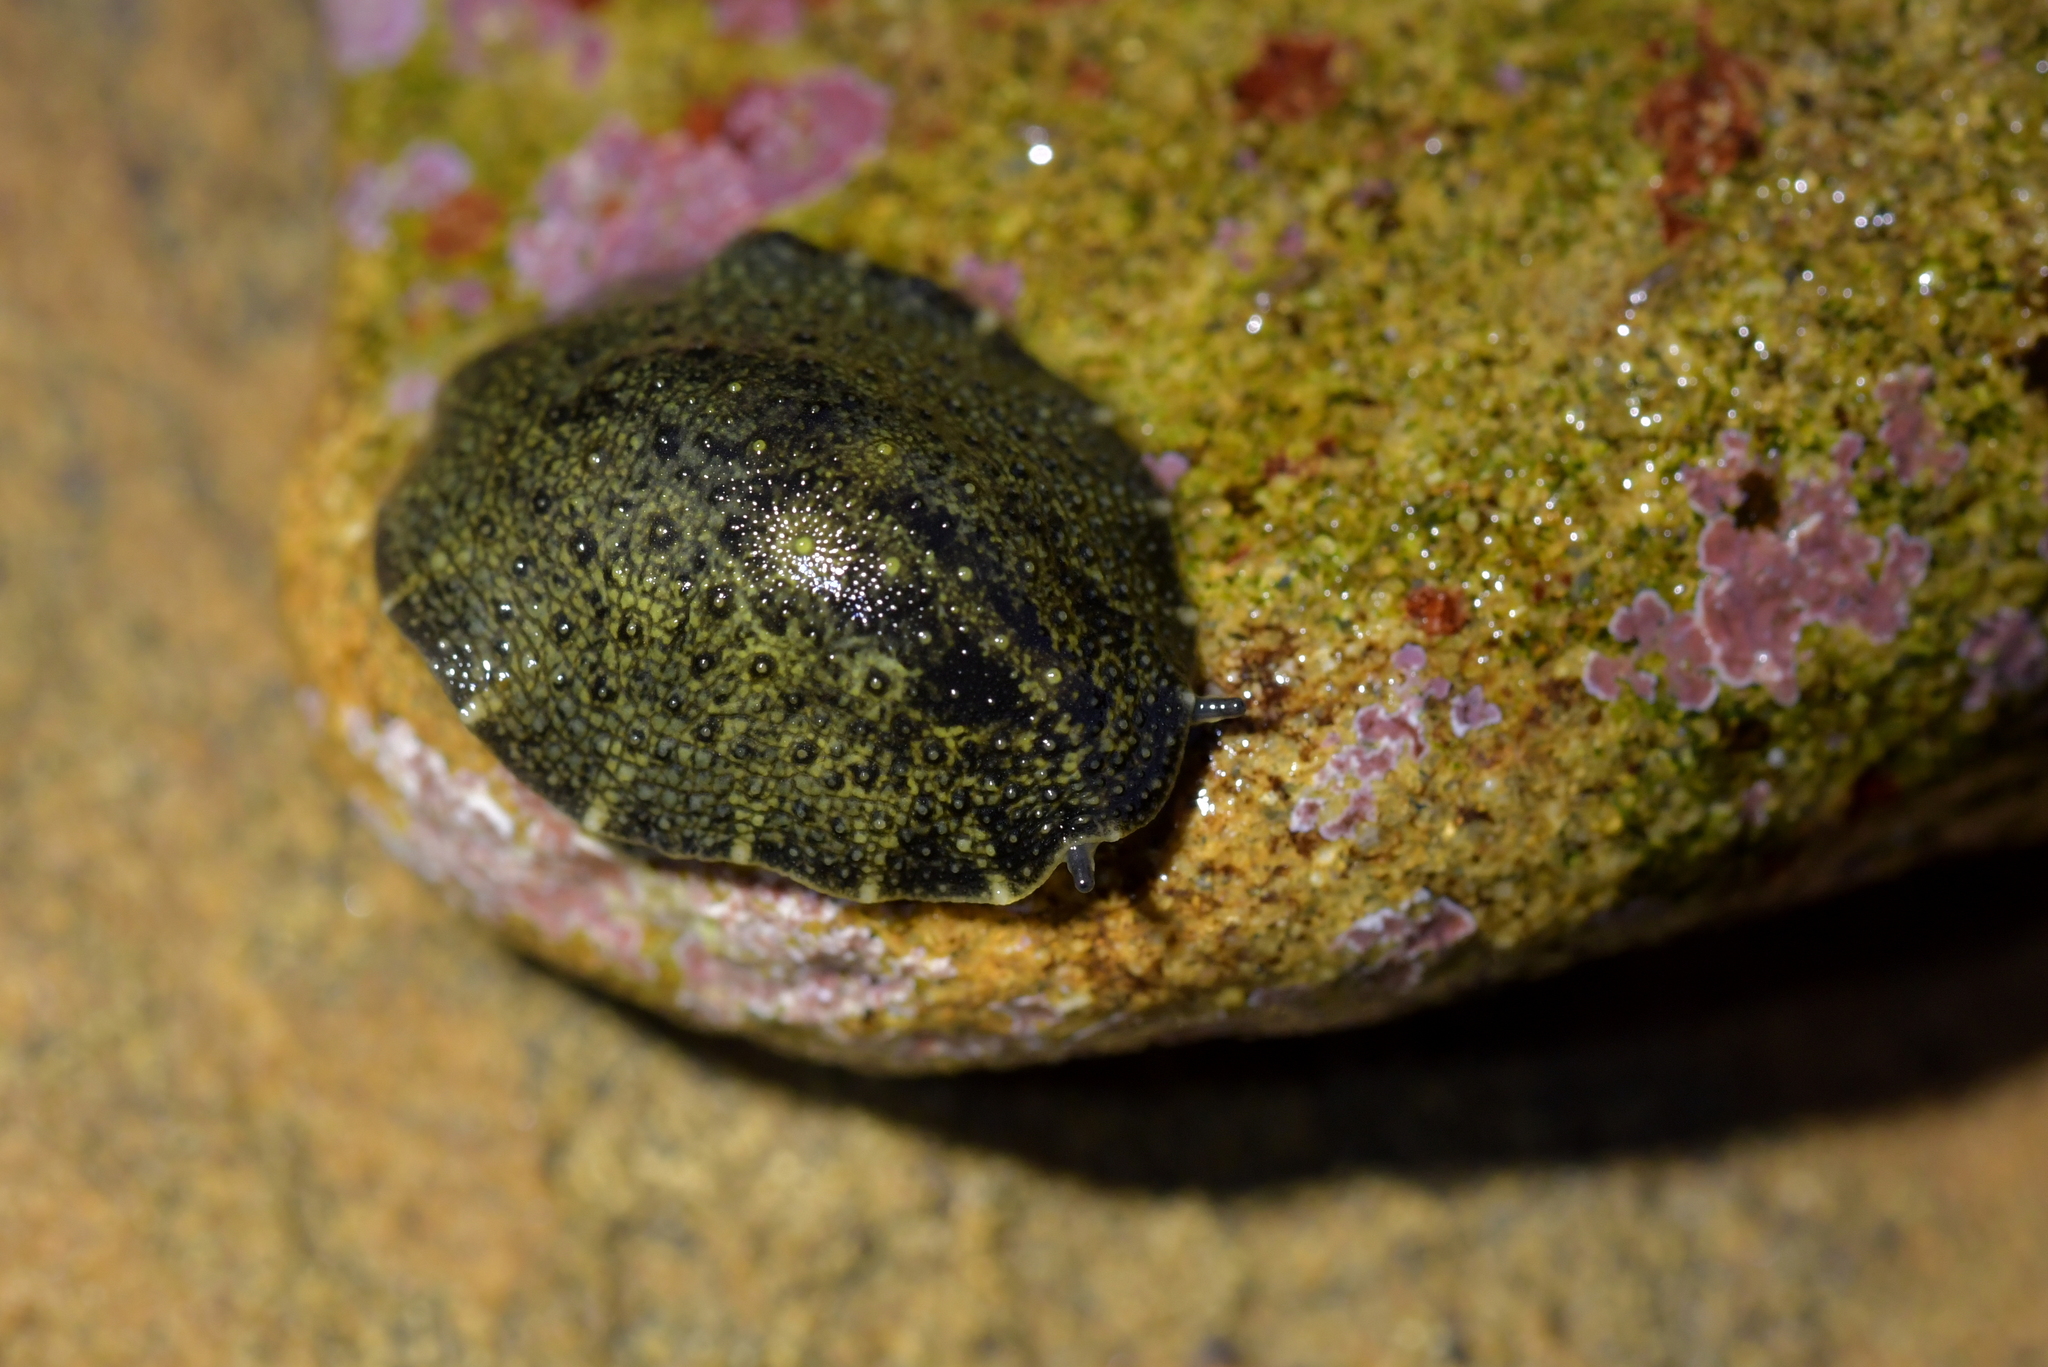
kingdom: Animalia
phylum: Mollusca
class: Gastropoda
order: Systellommatophora
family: Onchidiidae
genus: Onchidella
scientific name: Onchidella nigricans
